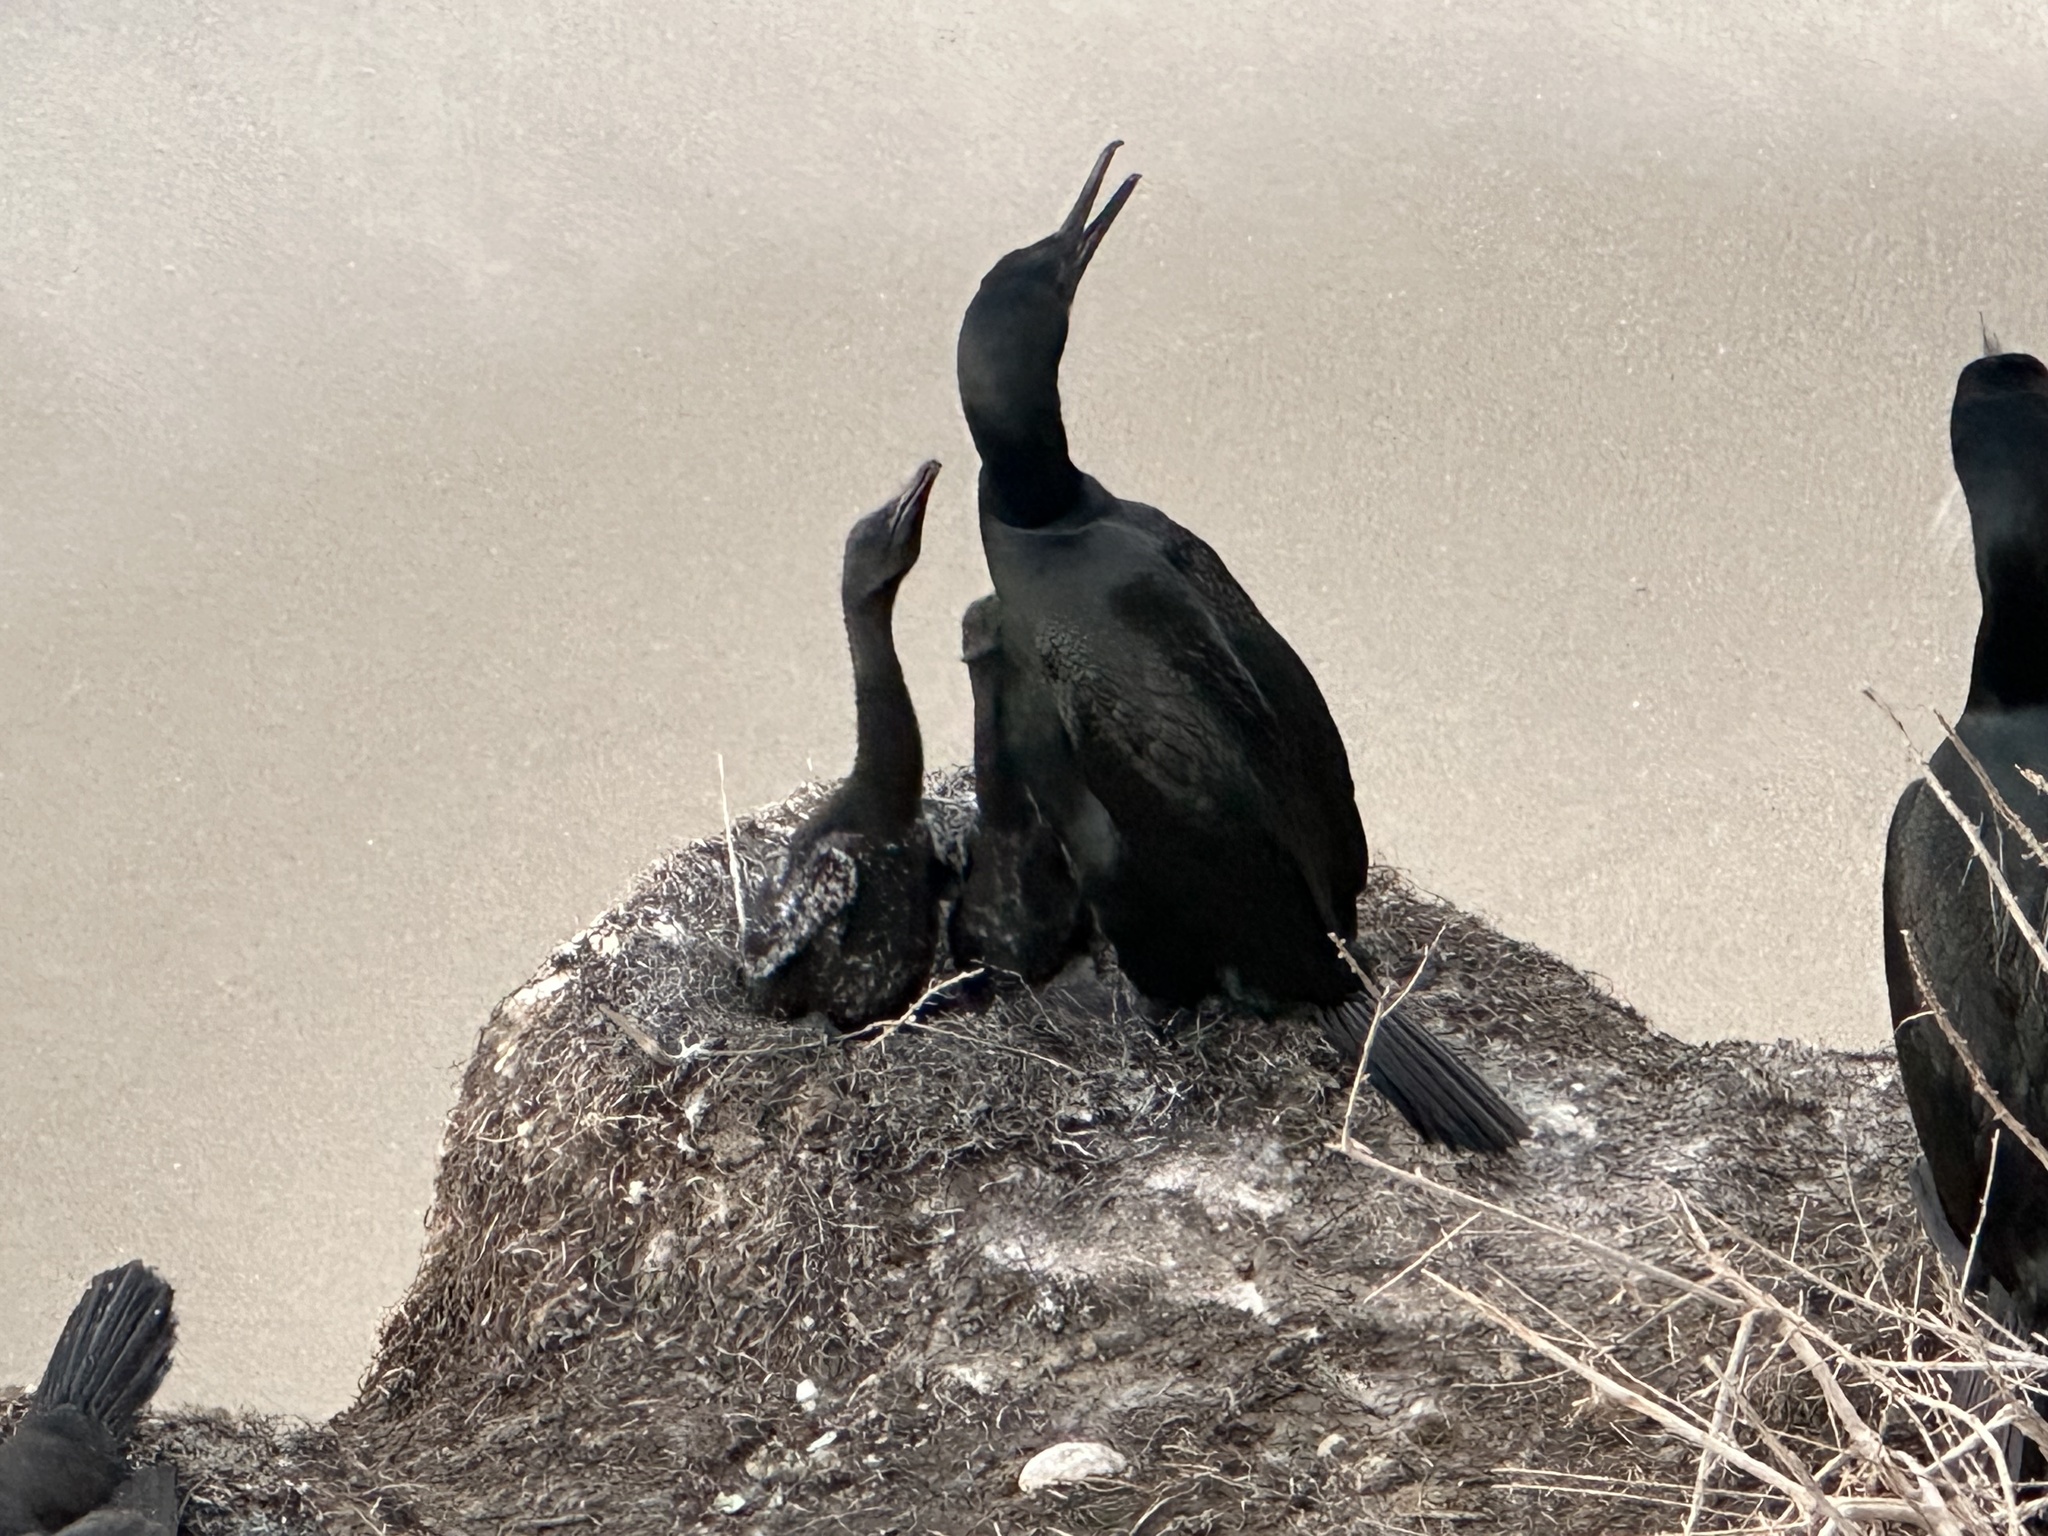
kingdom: Animalia
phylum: Chordata
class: Aves
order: Suliformes
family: Phalacrocoracidae
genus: Urile
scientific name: Urile penicillatus
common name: Brandt's cormorant
